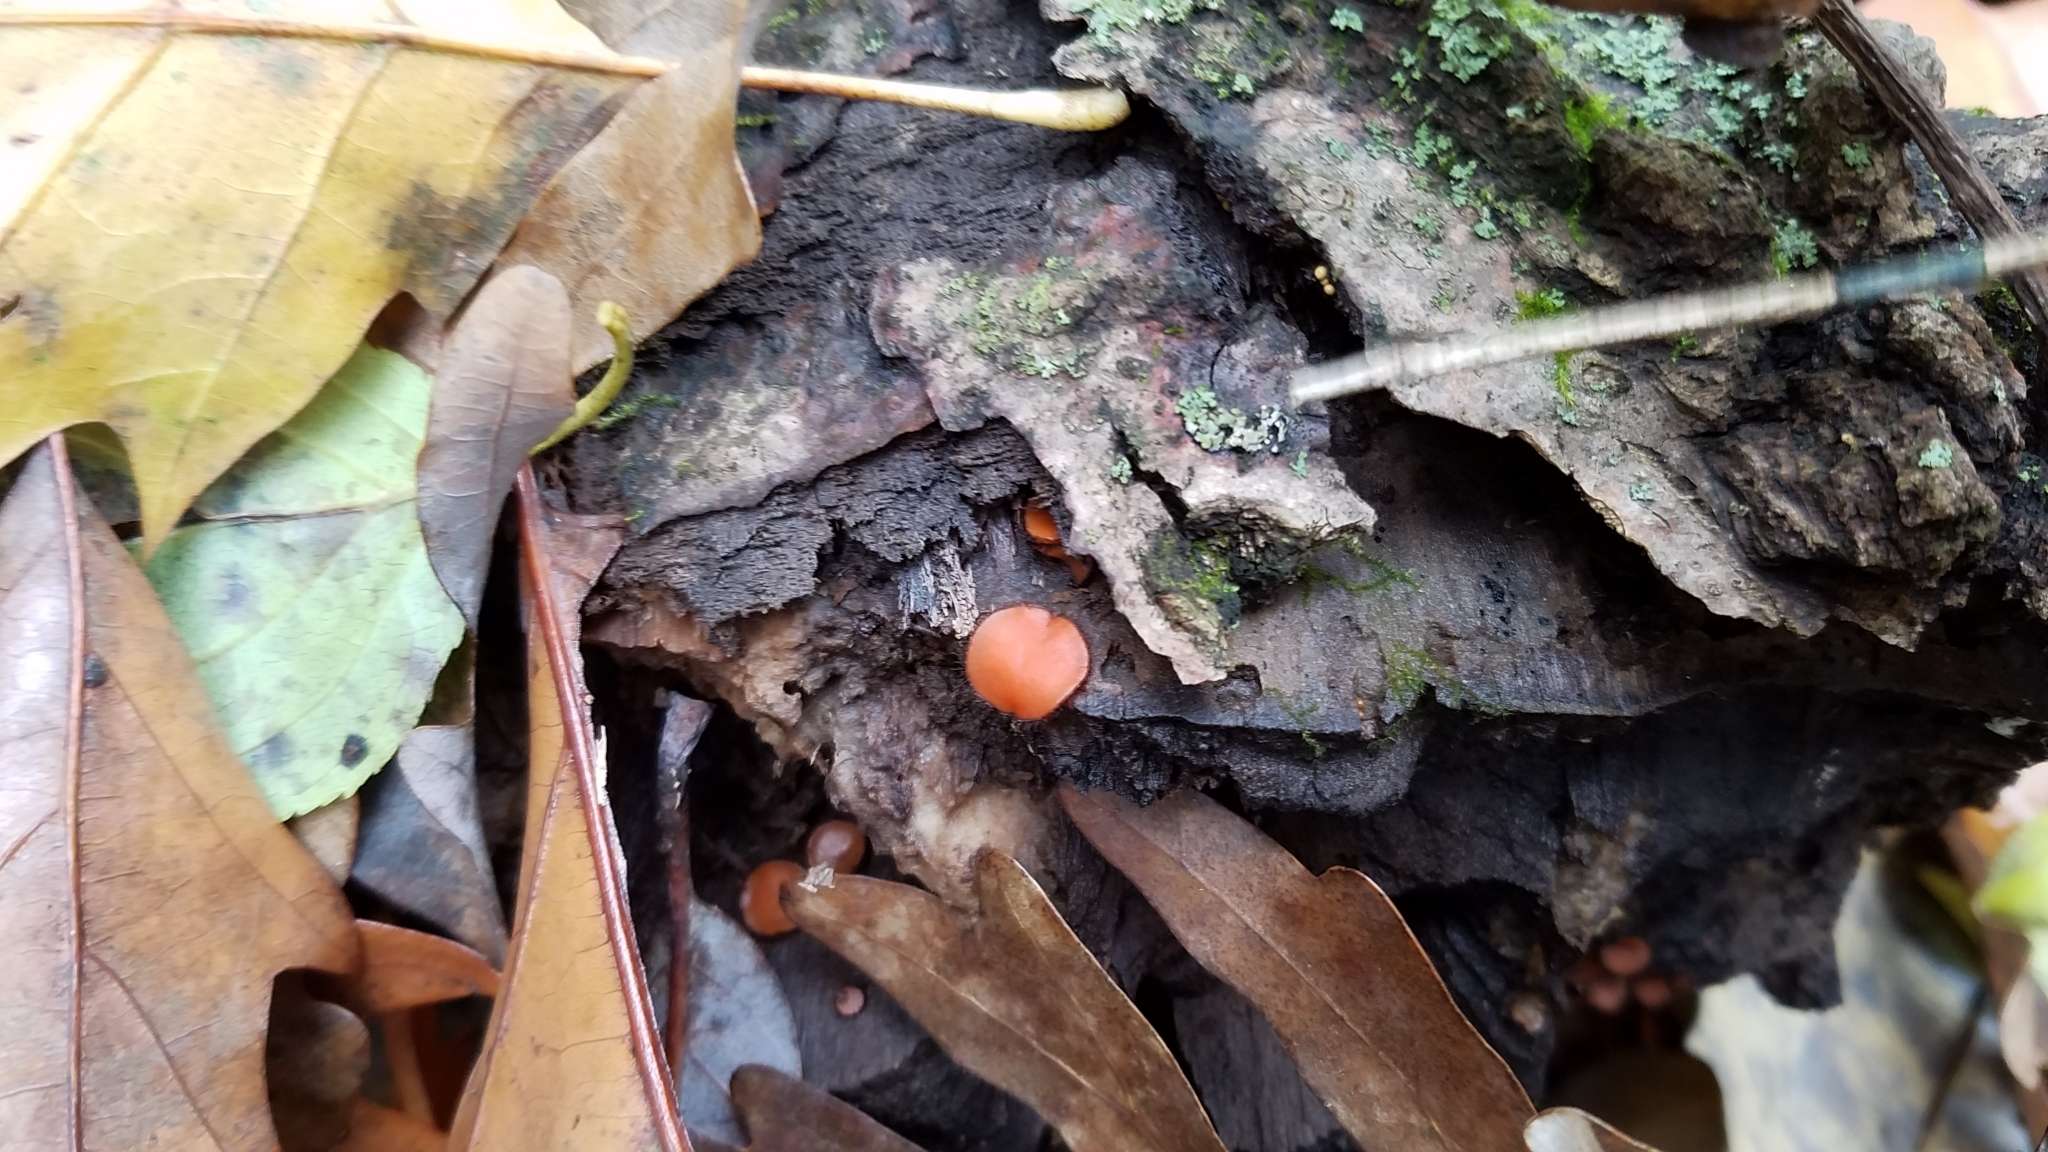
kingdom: Fungi
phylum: Ascomycota
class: Pezizomycetes
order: Pezizales
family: Pyronemataceae
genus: Scutellinia
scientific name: Scutellinia
